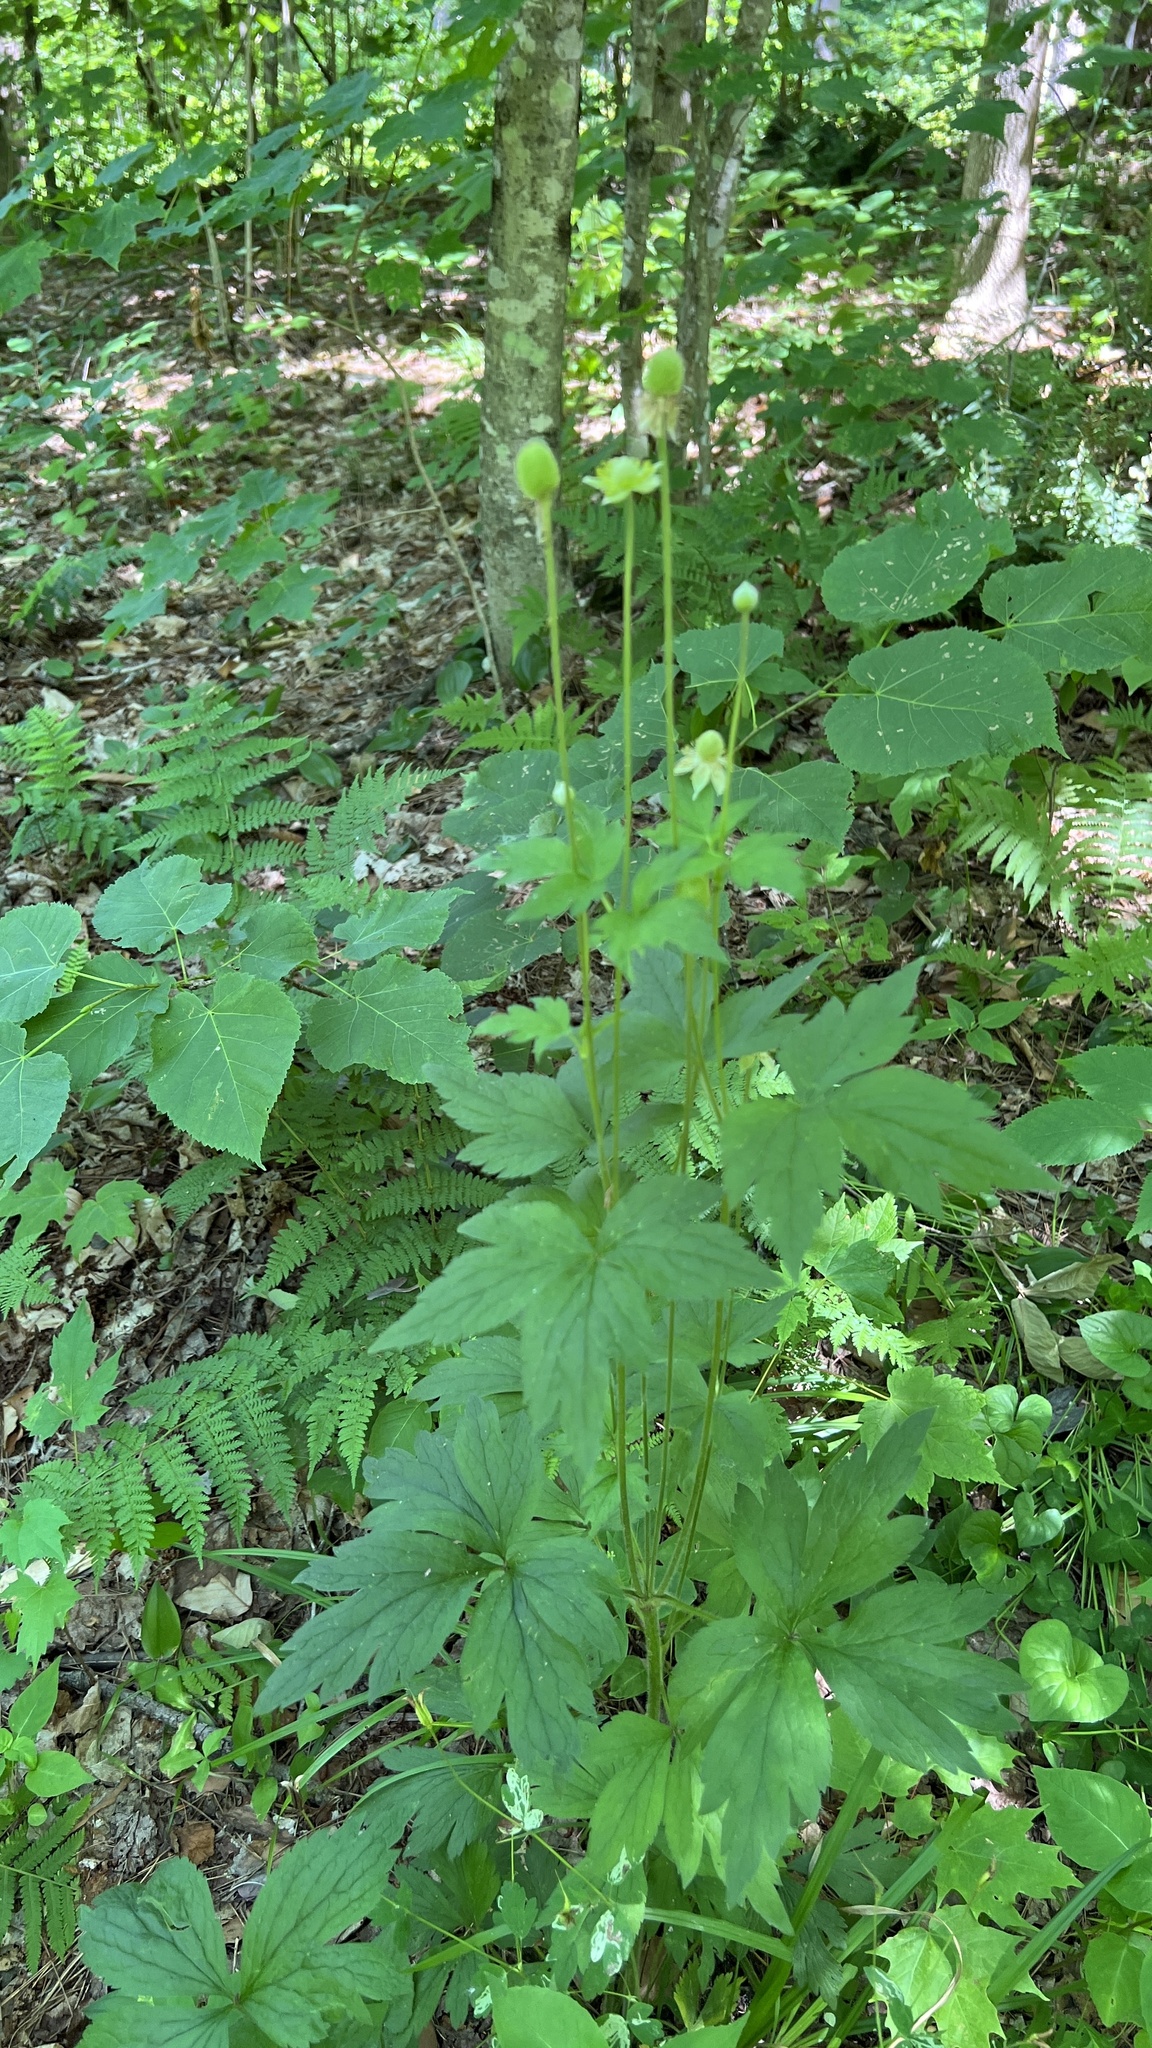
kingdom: Plantae
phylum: Tracheophyta
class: Magnoliopsida
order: Ranunculales
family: Ranunculaceae
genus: Anemone
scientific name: Anemone virginiana
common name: Tall anemone
